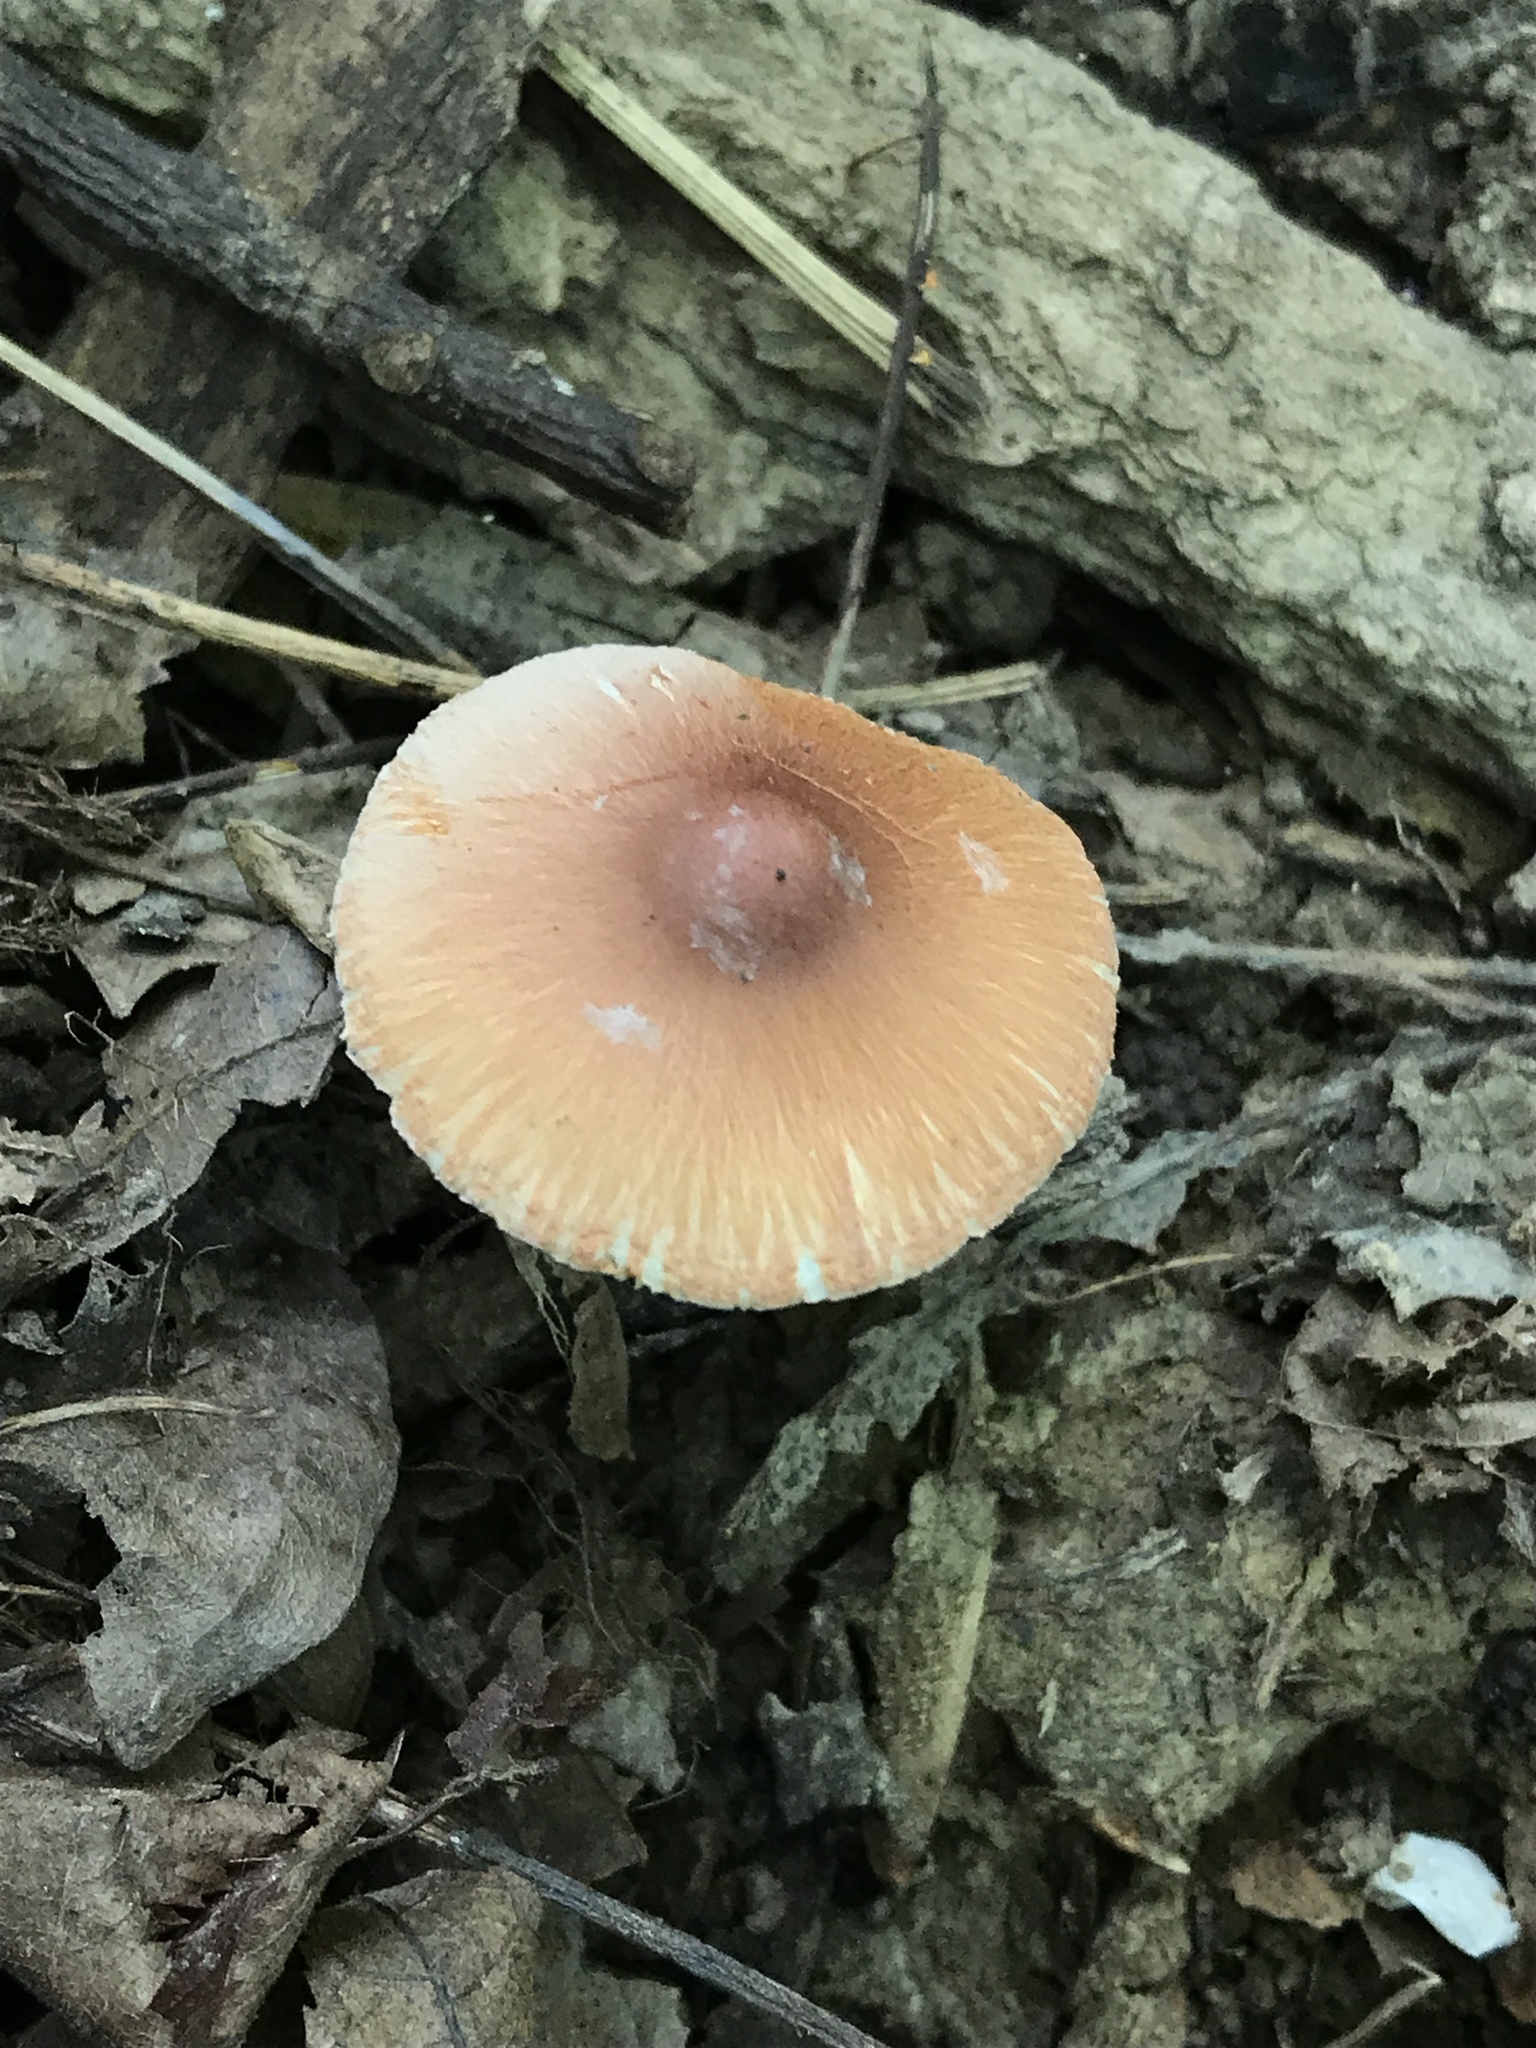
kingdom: Fungi
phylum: Basidiomycota
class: Agaricomycetes
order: Agaricales
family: Agaricaceae
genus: Leucoagaricus
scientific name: Leucoagaricus rubrotinctus
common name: Ruby dapperling
